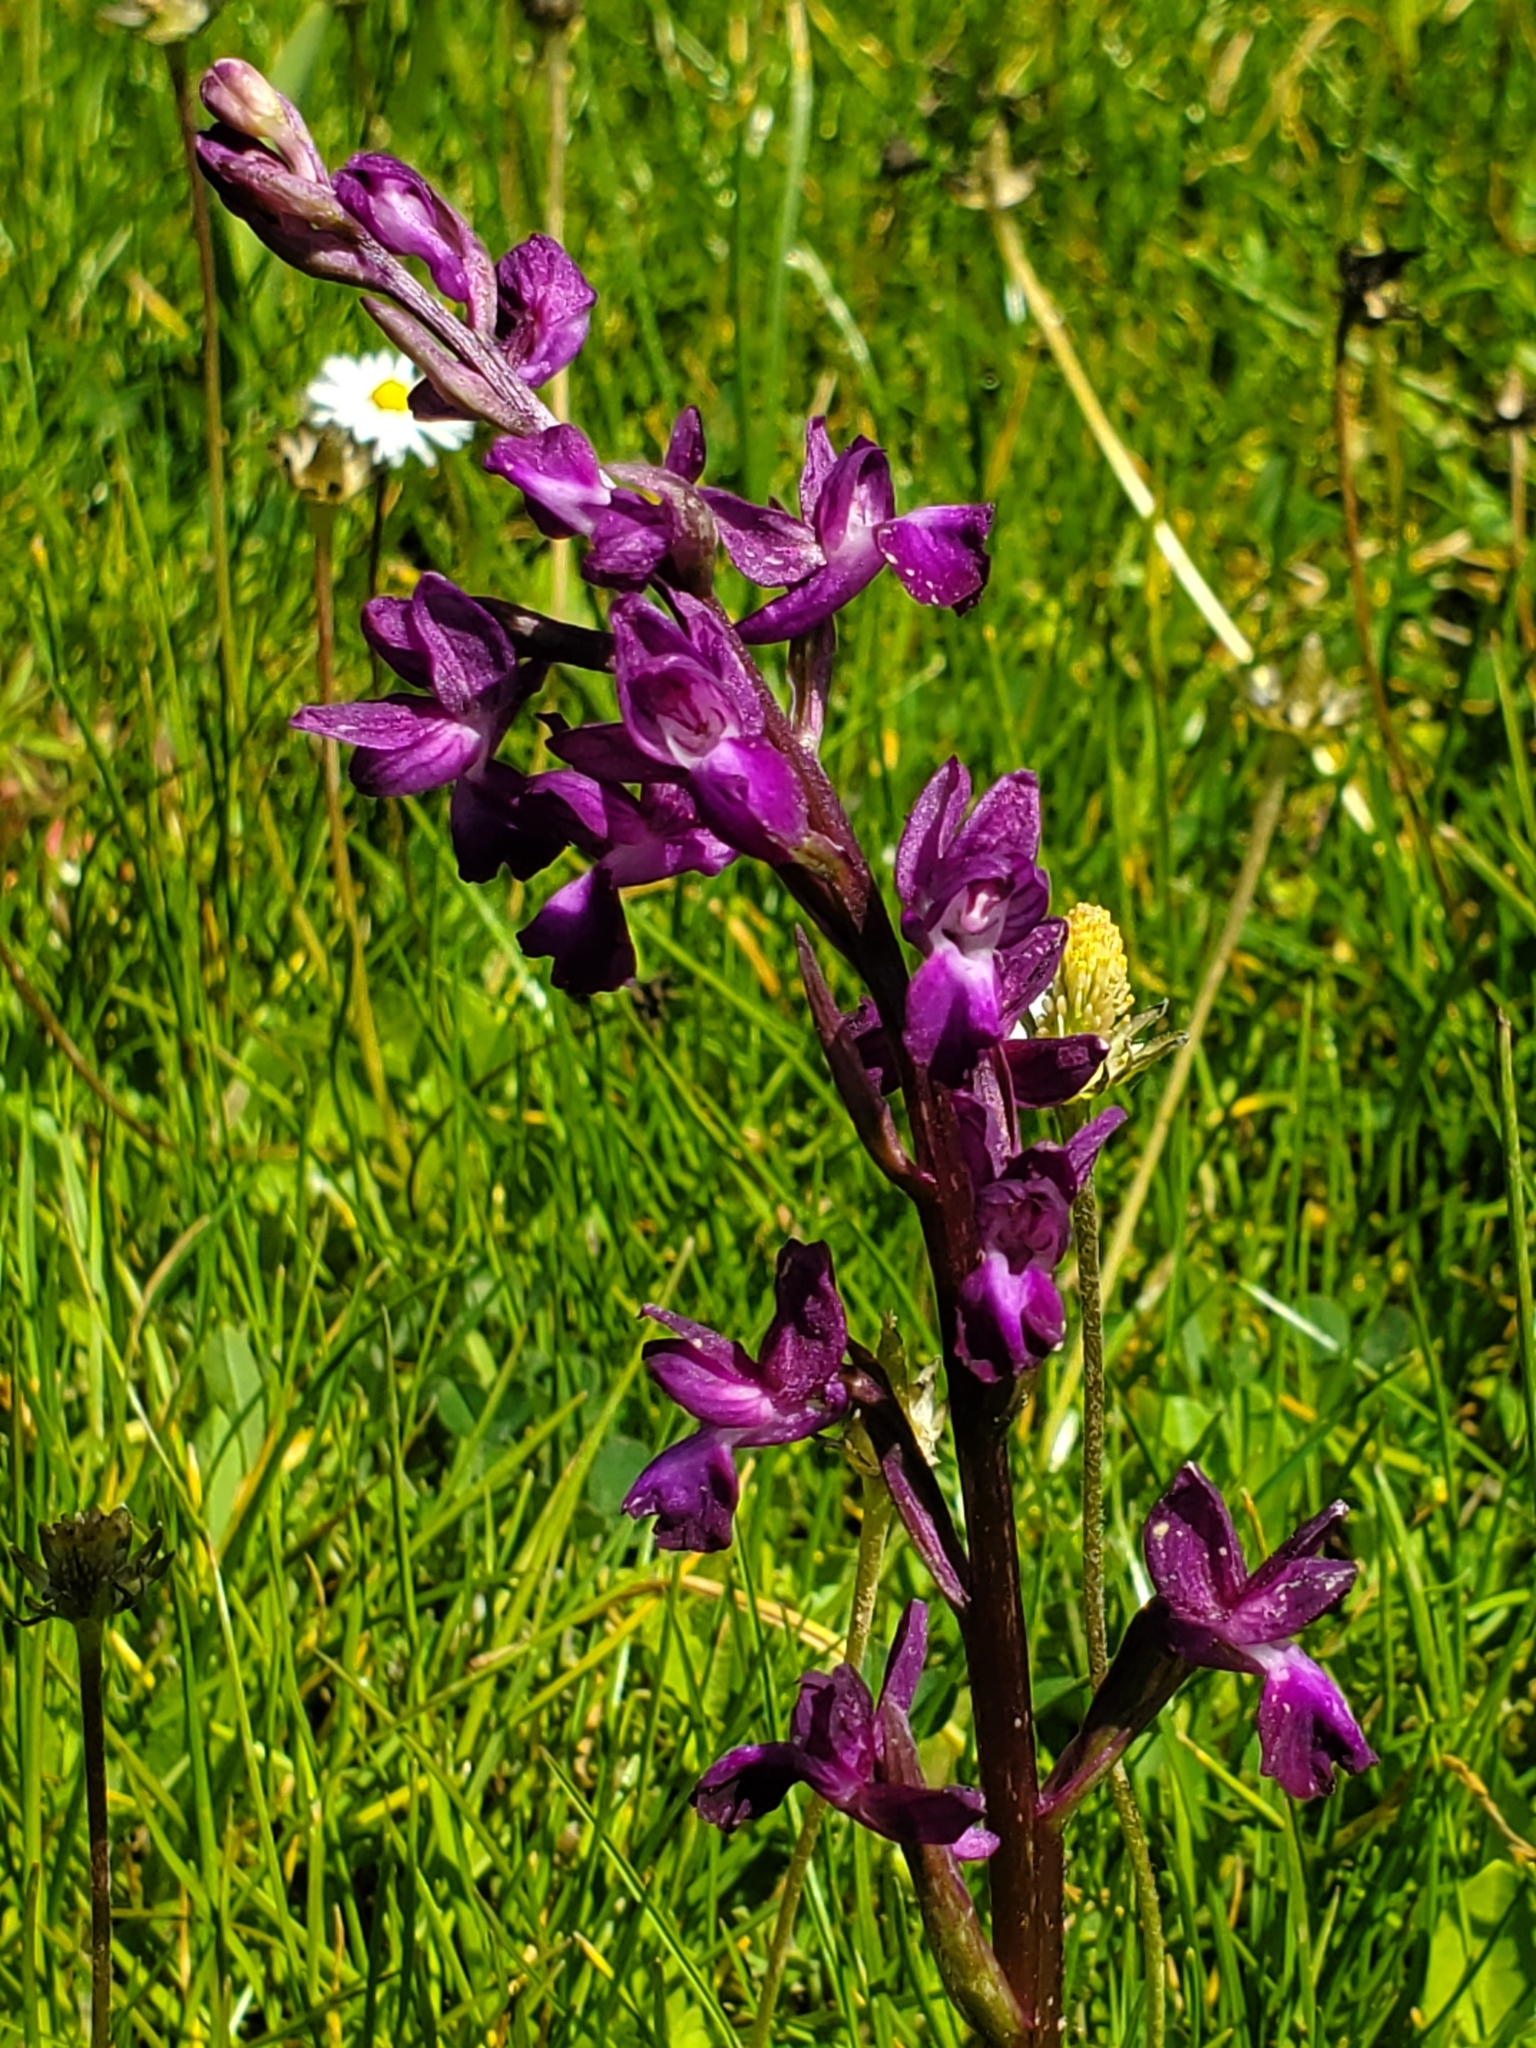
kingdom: Plantae
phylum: Tracheophyta
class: Liliopsida
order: Asparagales
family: Orchidaceae
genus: Anacamptis
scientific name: Anacamptis laxiflora
